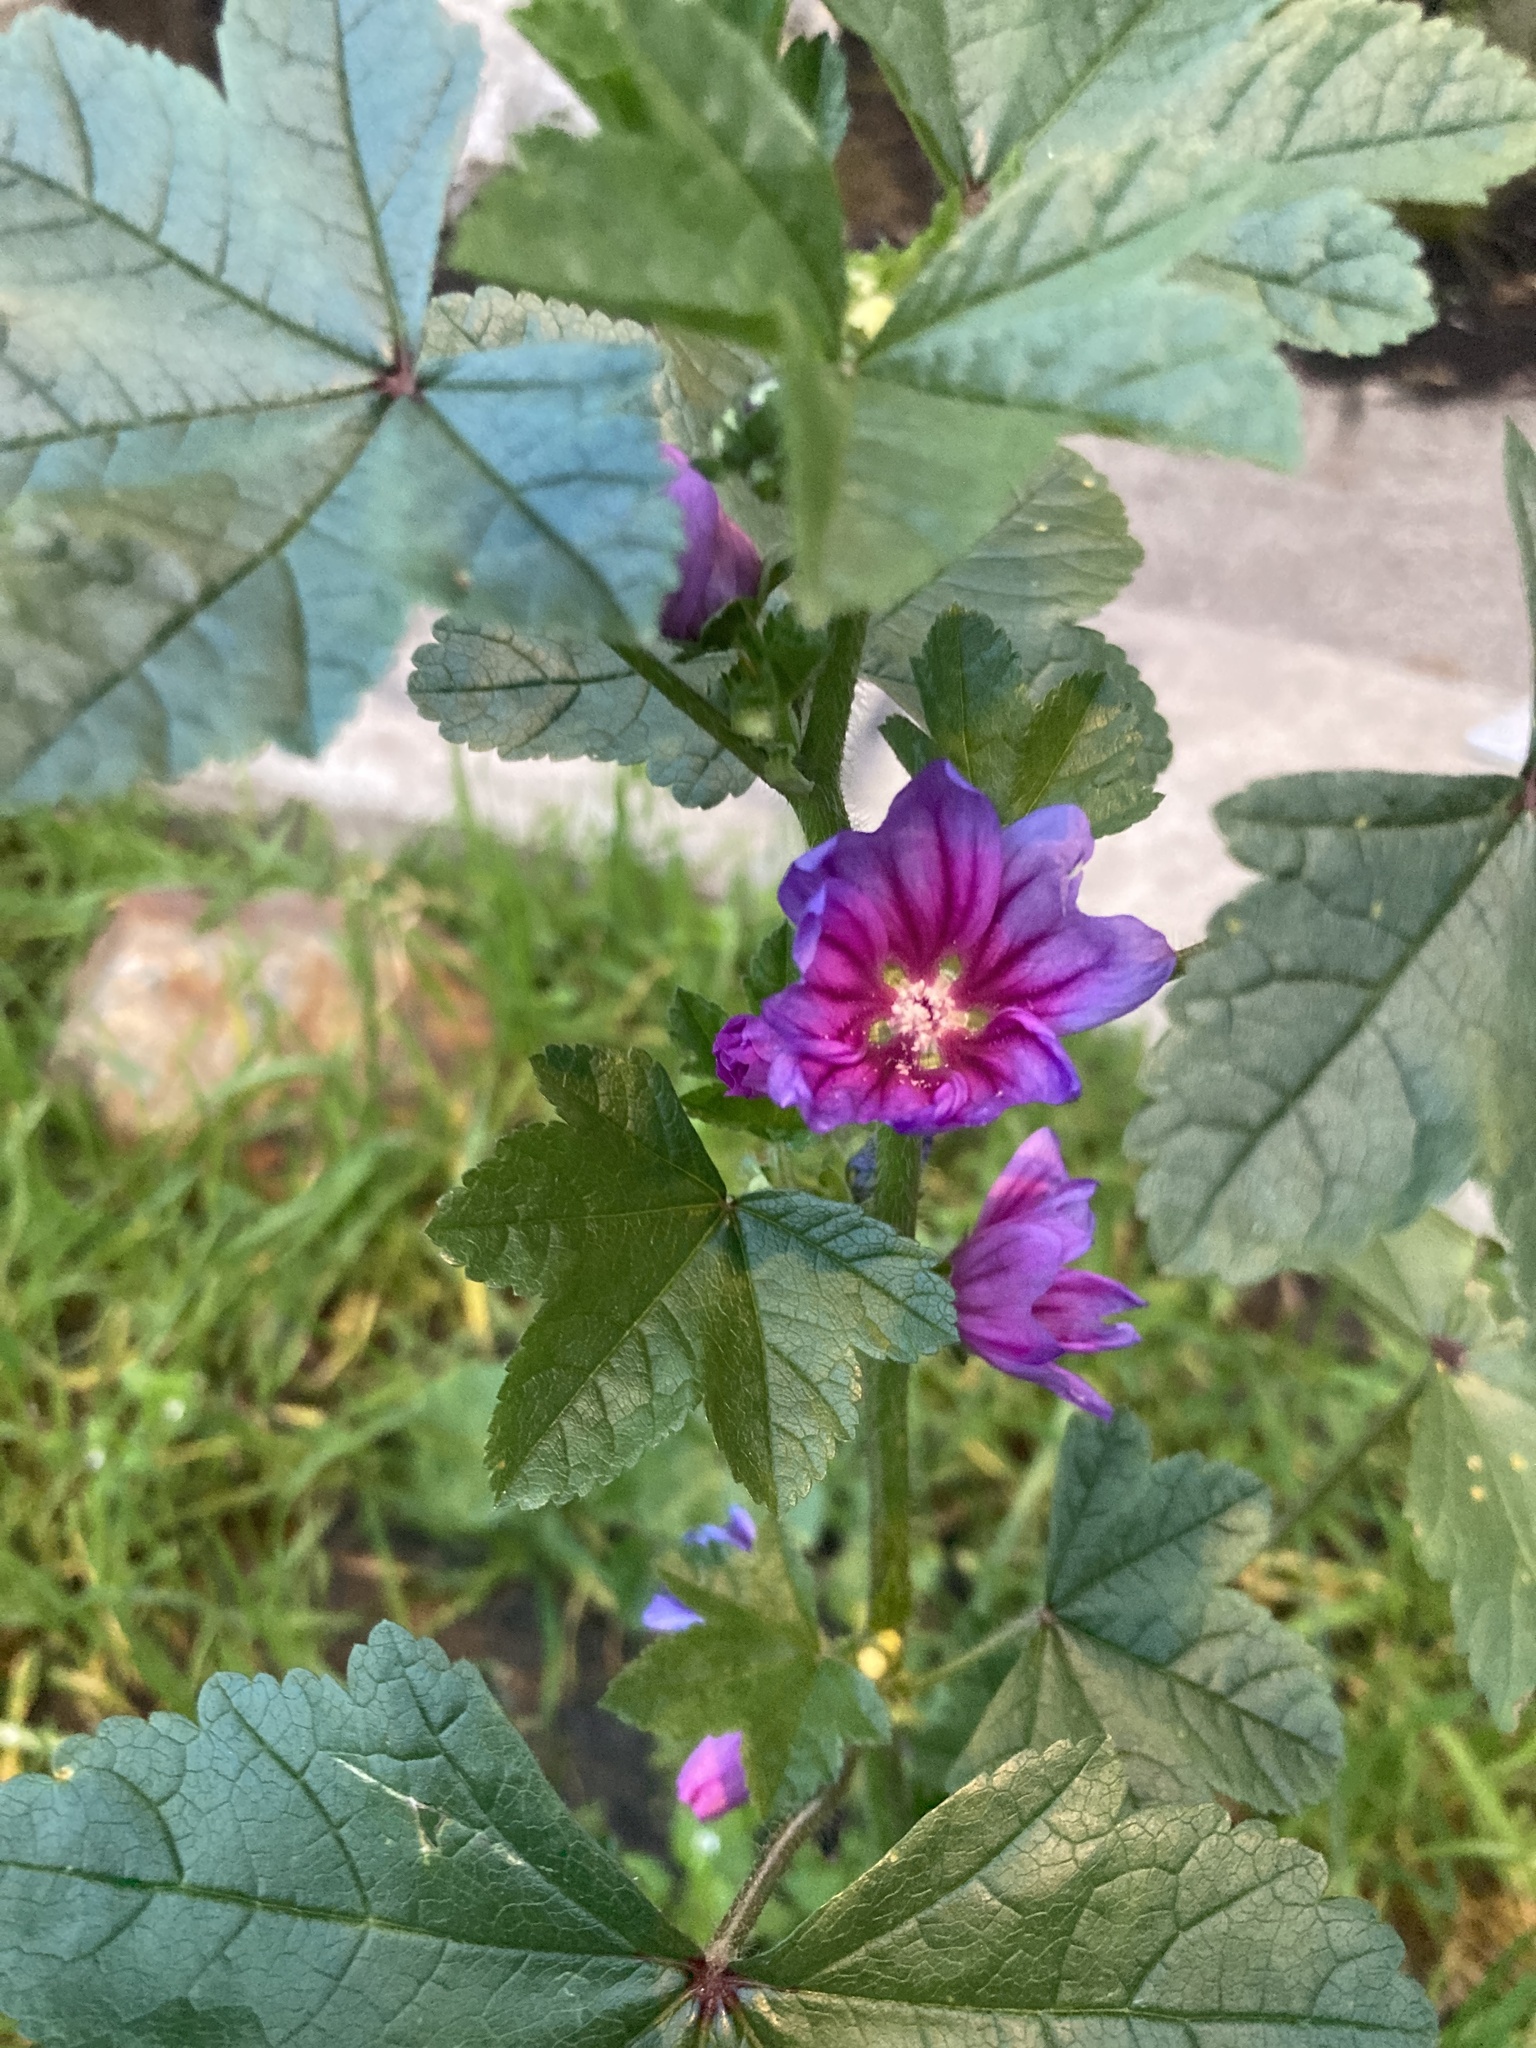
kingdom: Plantae
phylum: Tracheophyta
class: Magnoliopsida
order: Malvales
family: Malvaceae
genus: Malva
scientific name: Malva sylvestris
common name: Common mallow
